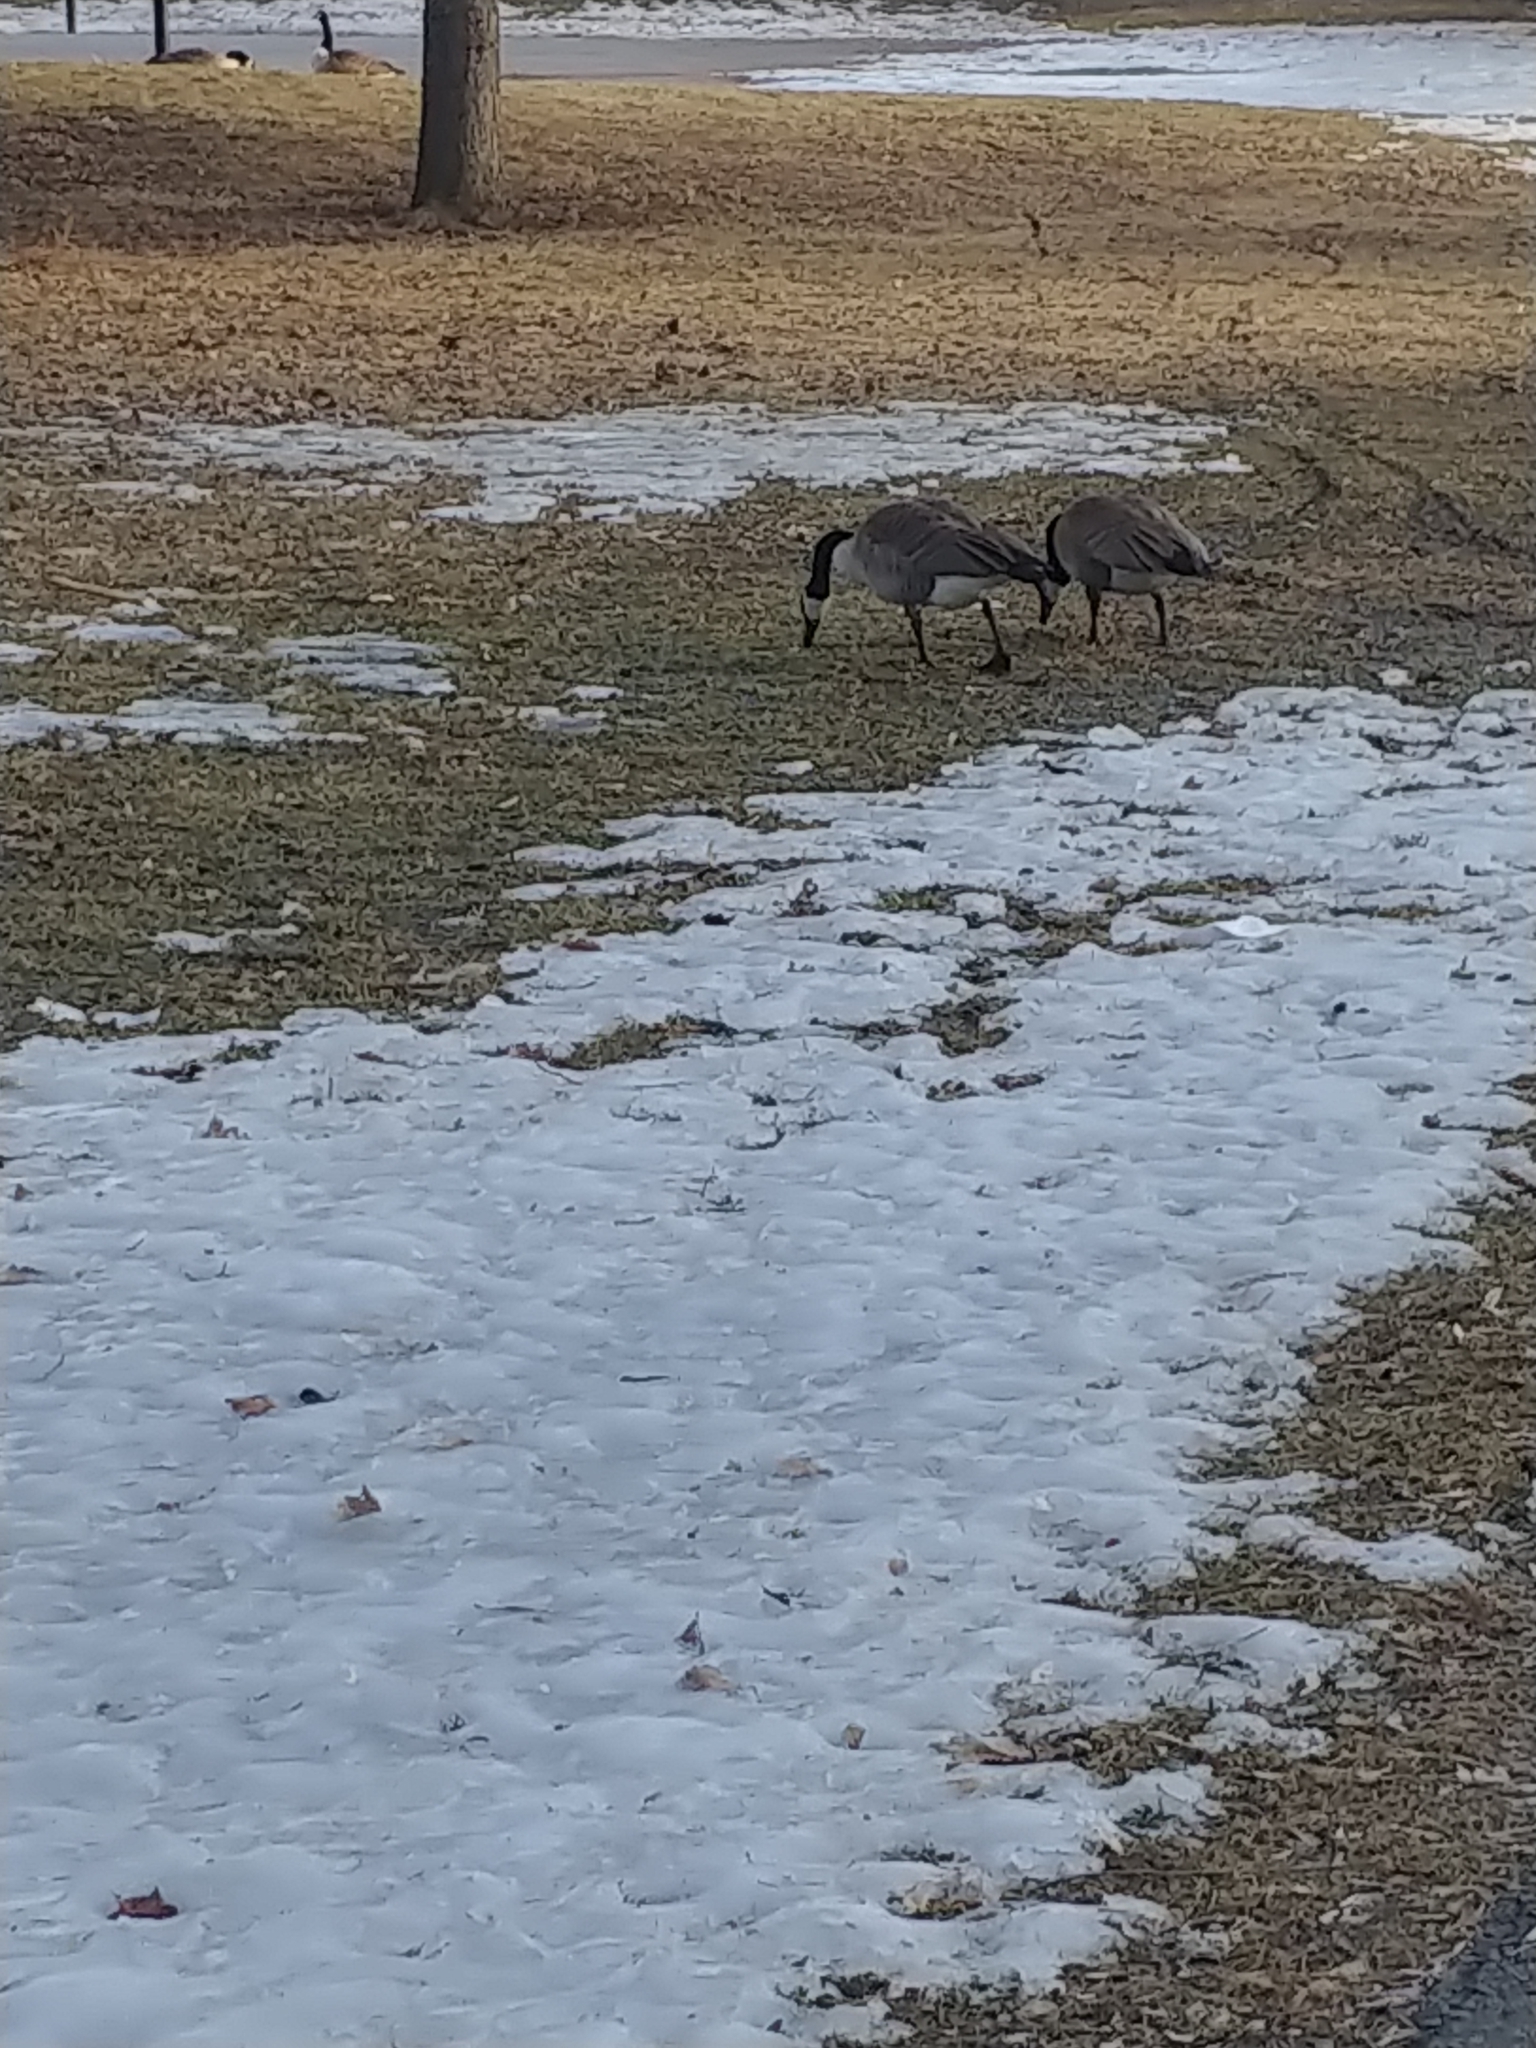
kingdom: Animalia
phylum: Chordata
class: Aves
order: Anseriformes
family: Anatidae
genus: Branta
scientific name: Branta canadensis
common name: Canada goose
